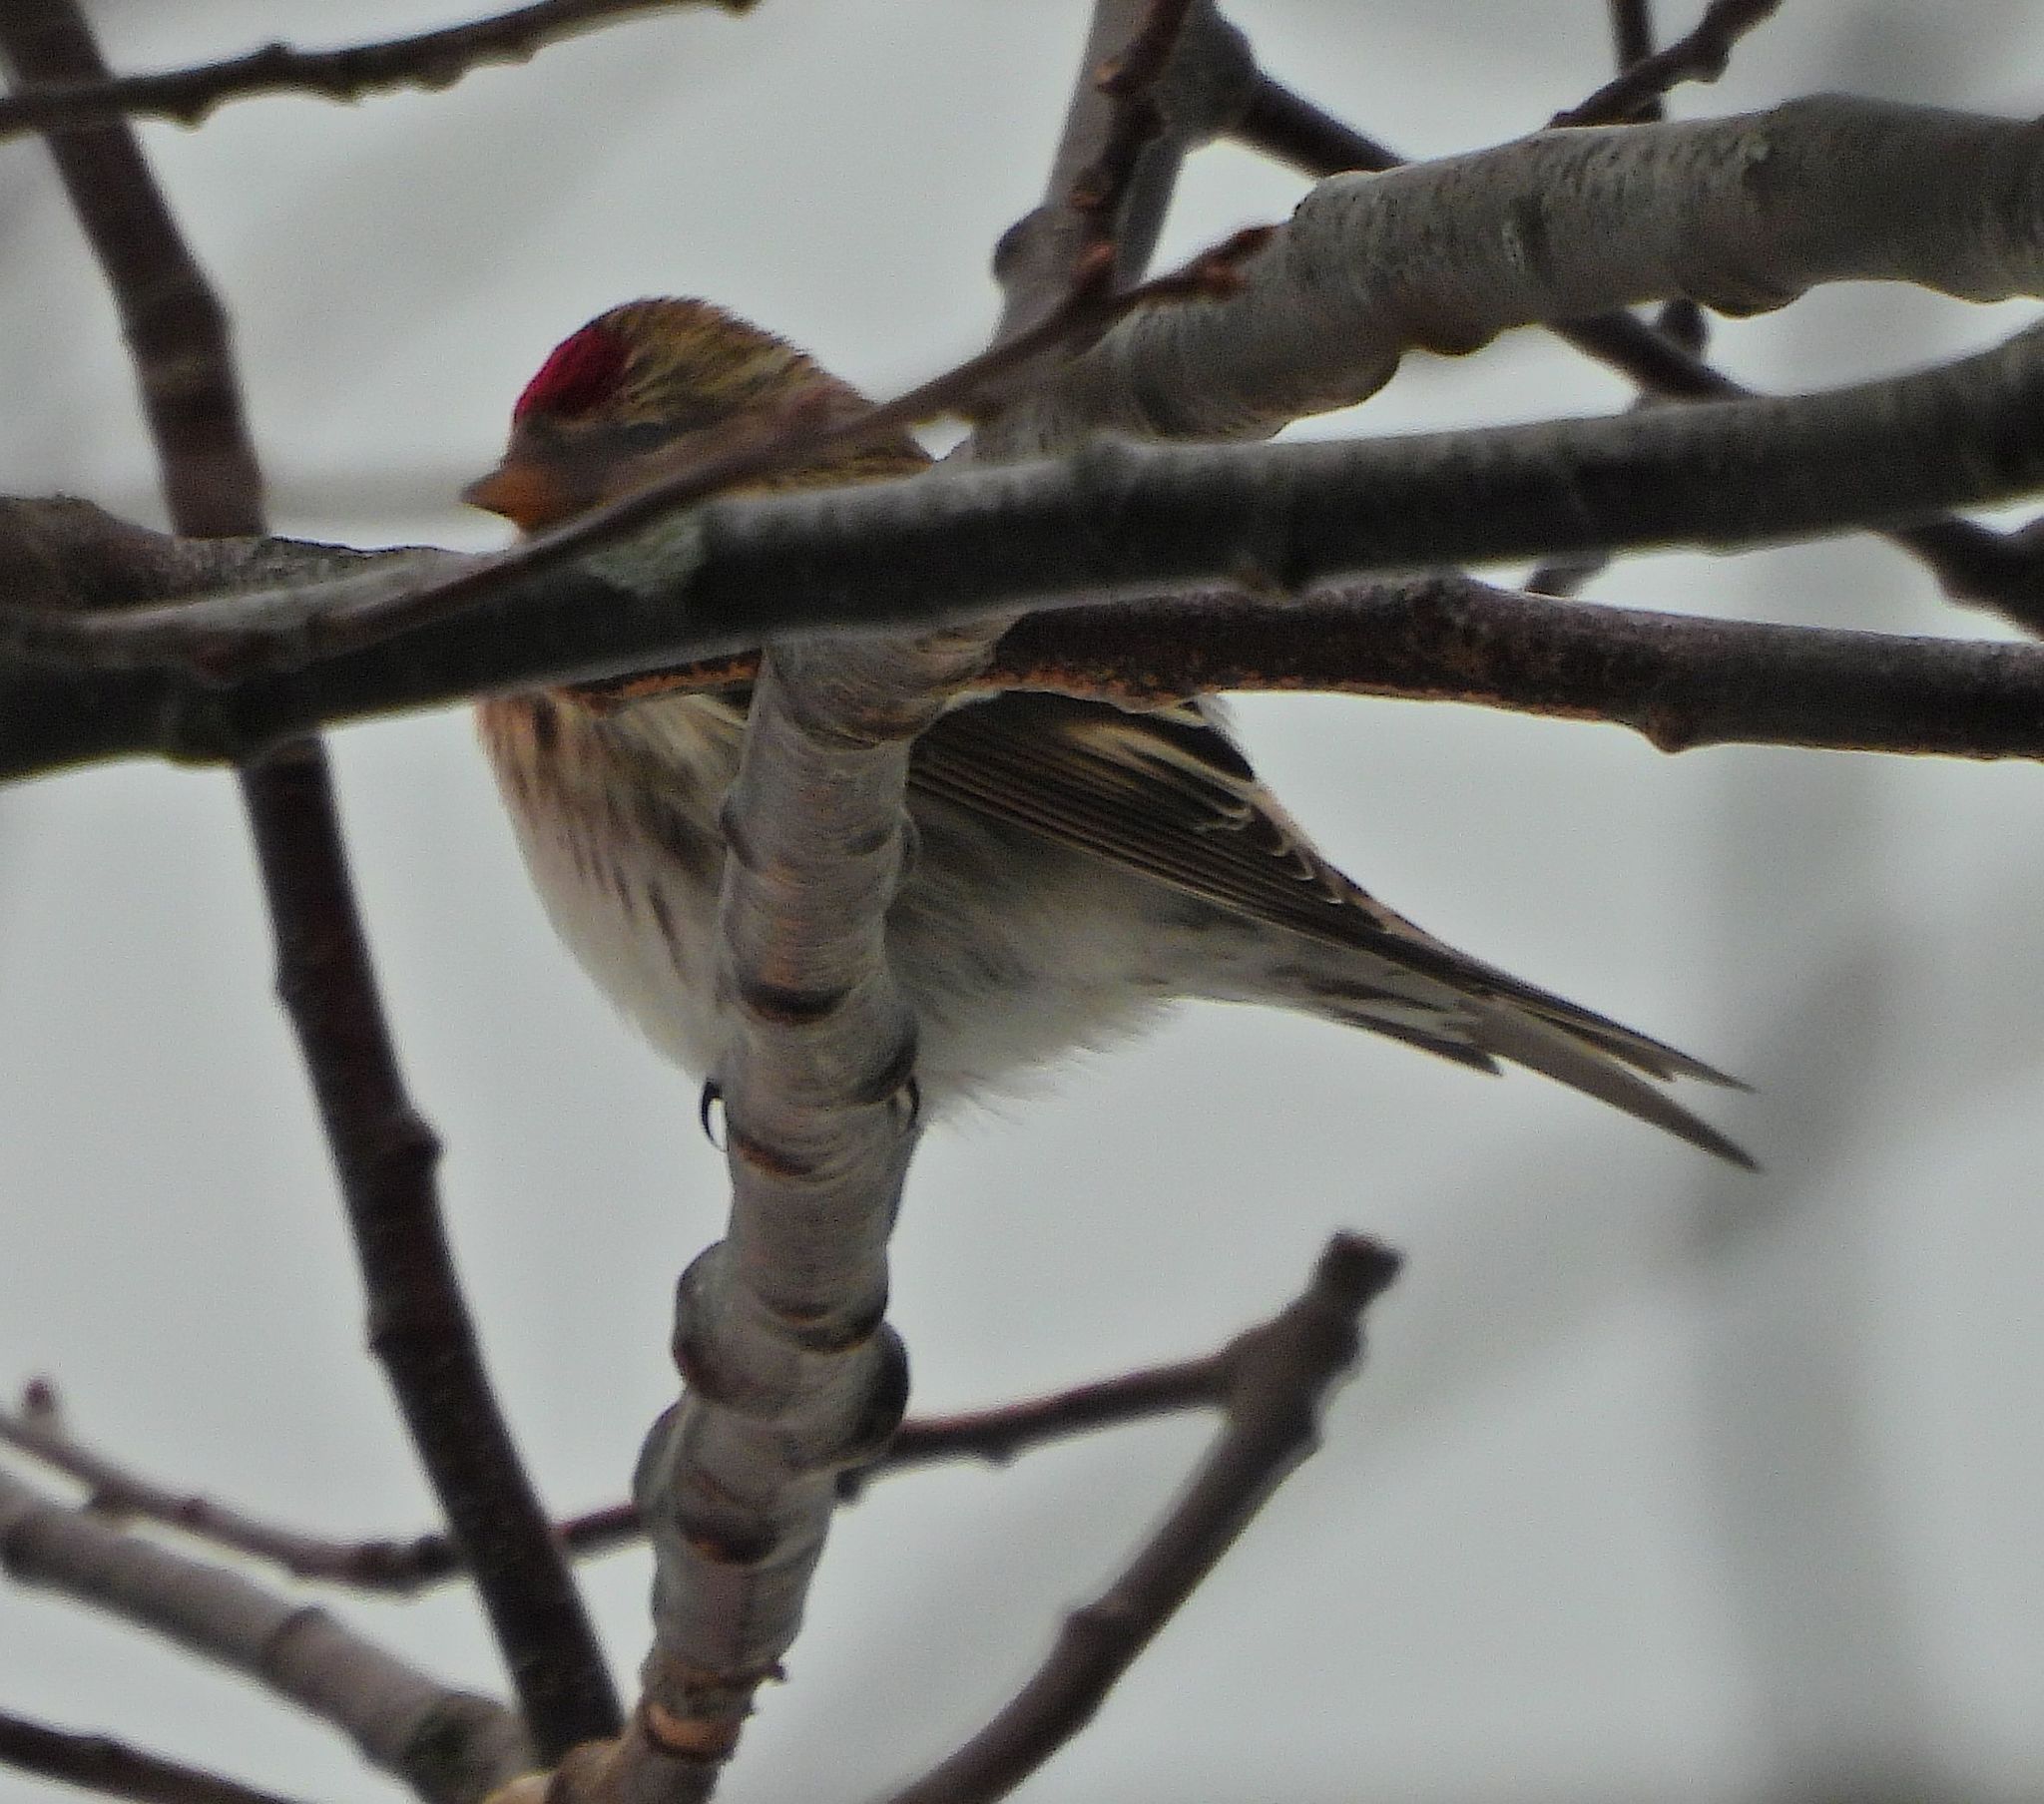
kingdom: Animalia
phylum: Chordata
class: Aves
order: Passeriformes
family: Fringillidae
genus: Acanthis
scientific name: Acanthis flammea
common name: Common redpoll
